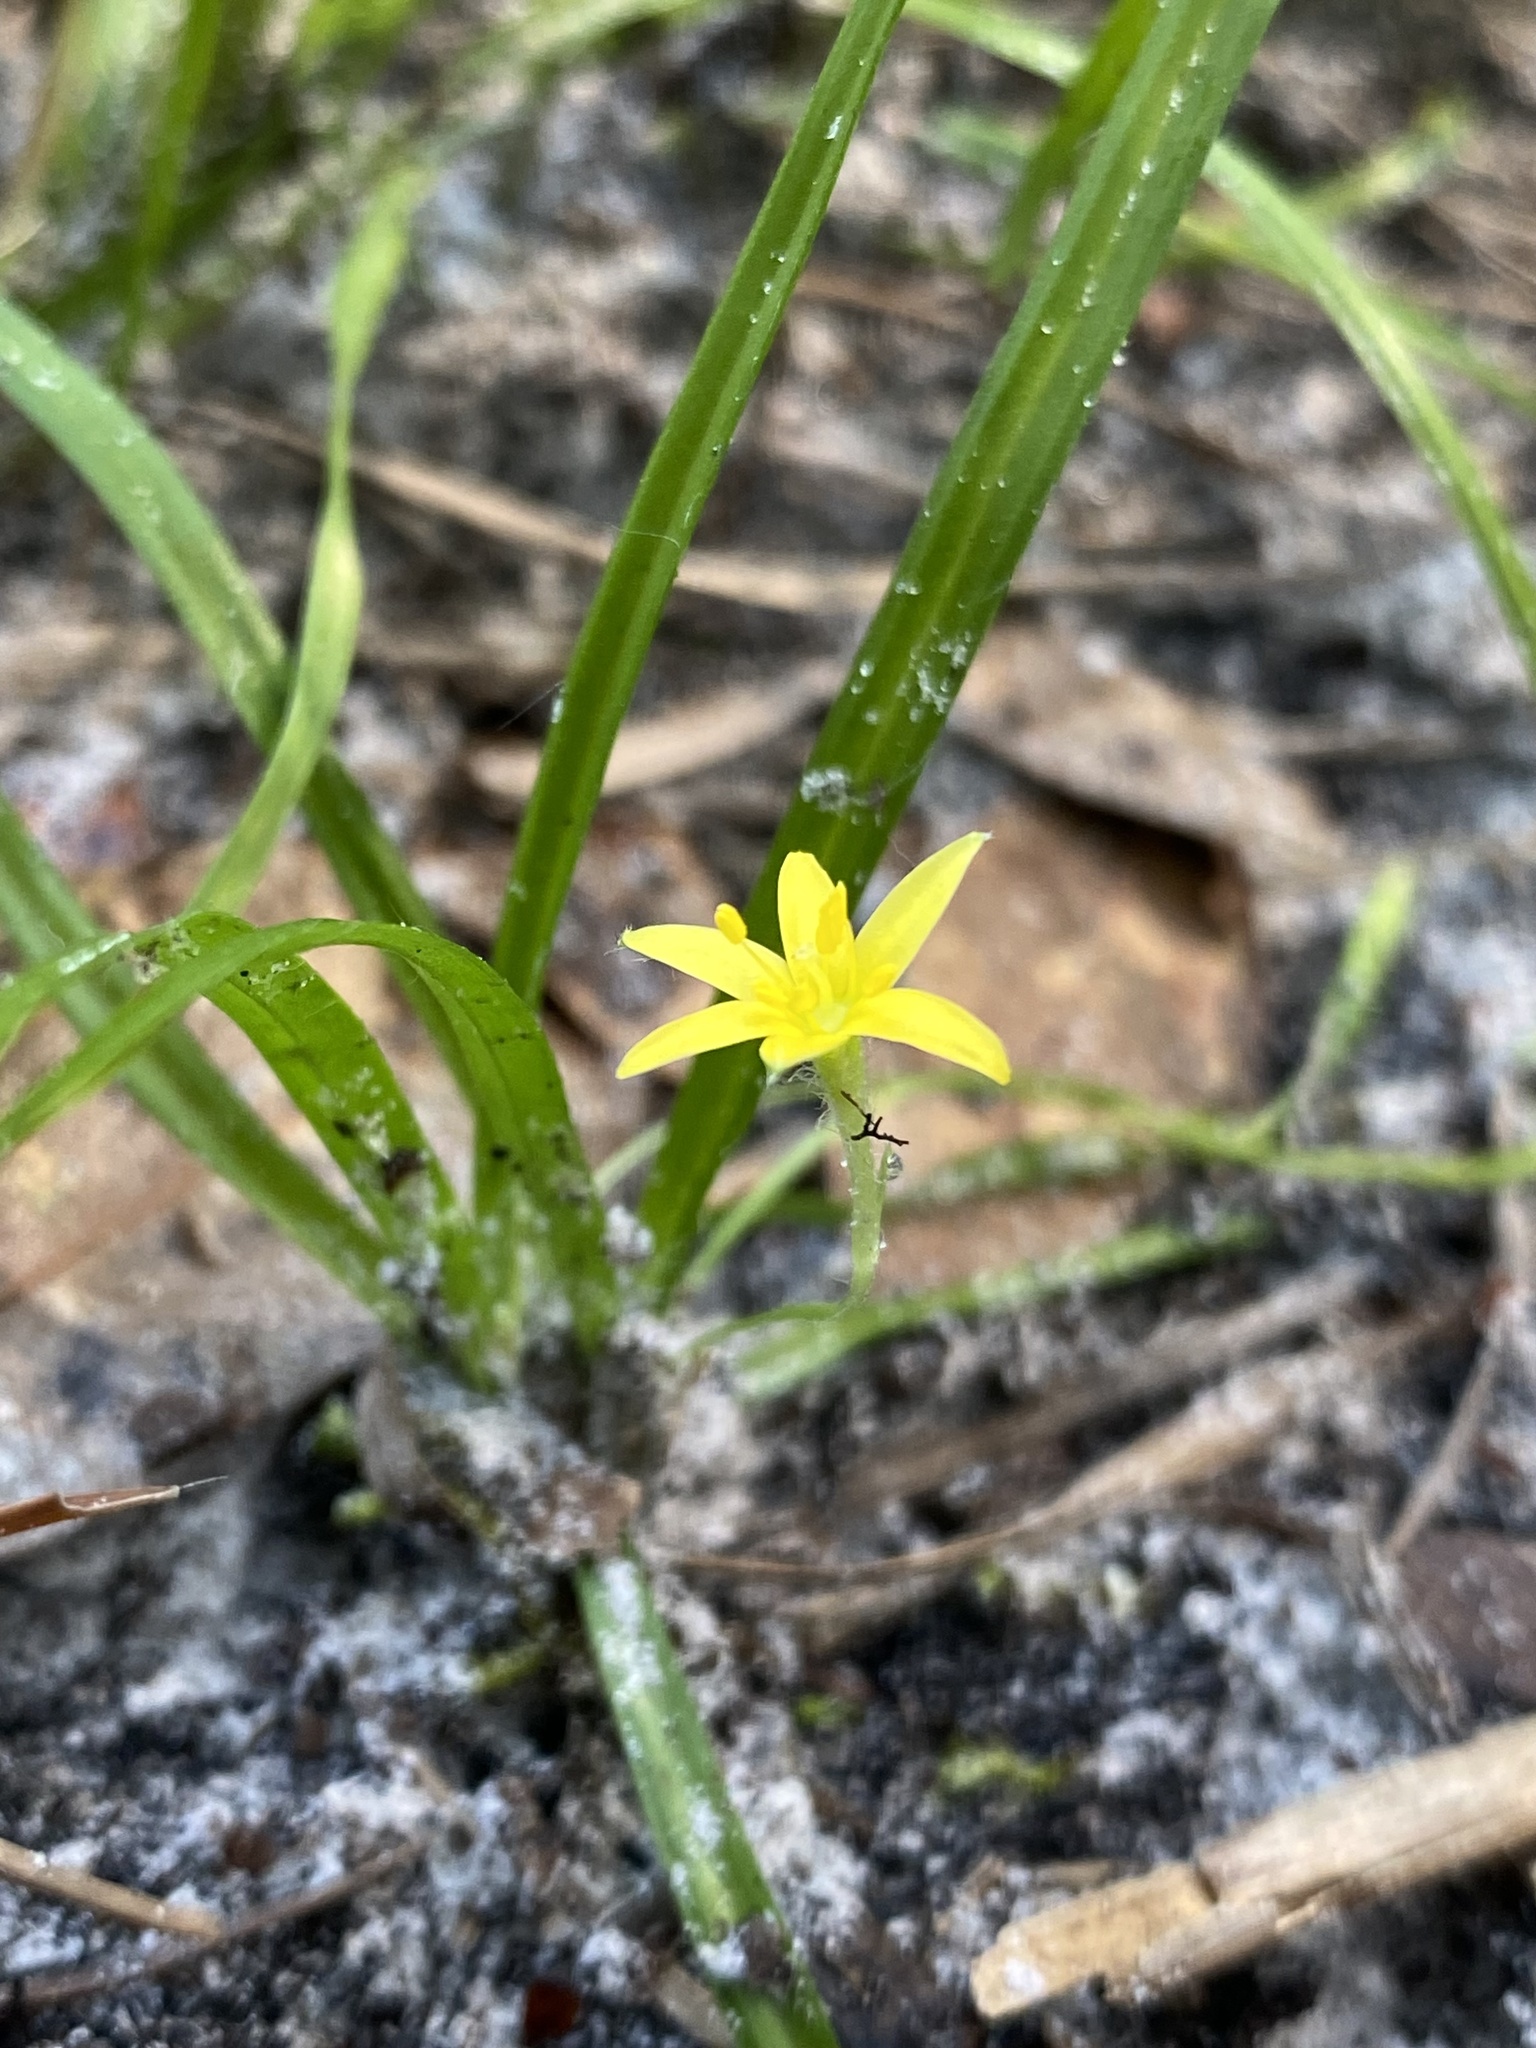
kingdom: Plantae
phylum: Tracheophyta
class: Liliopsida
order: Asparagales
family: Hypoxidaceae
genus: Hypoxis
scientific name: Hypoxis curtissii
